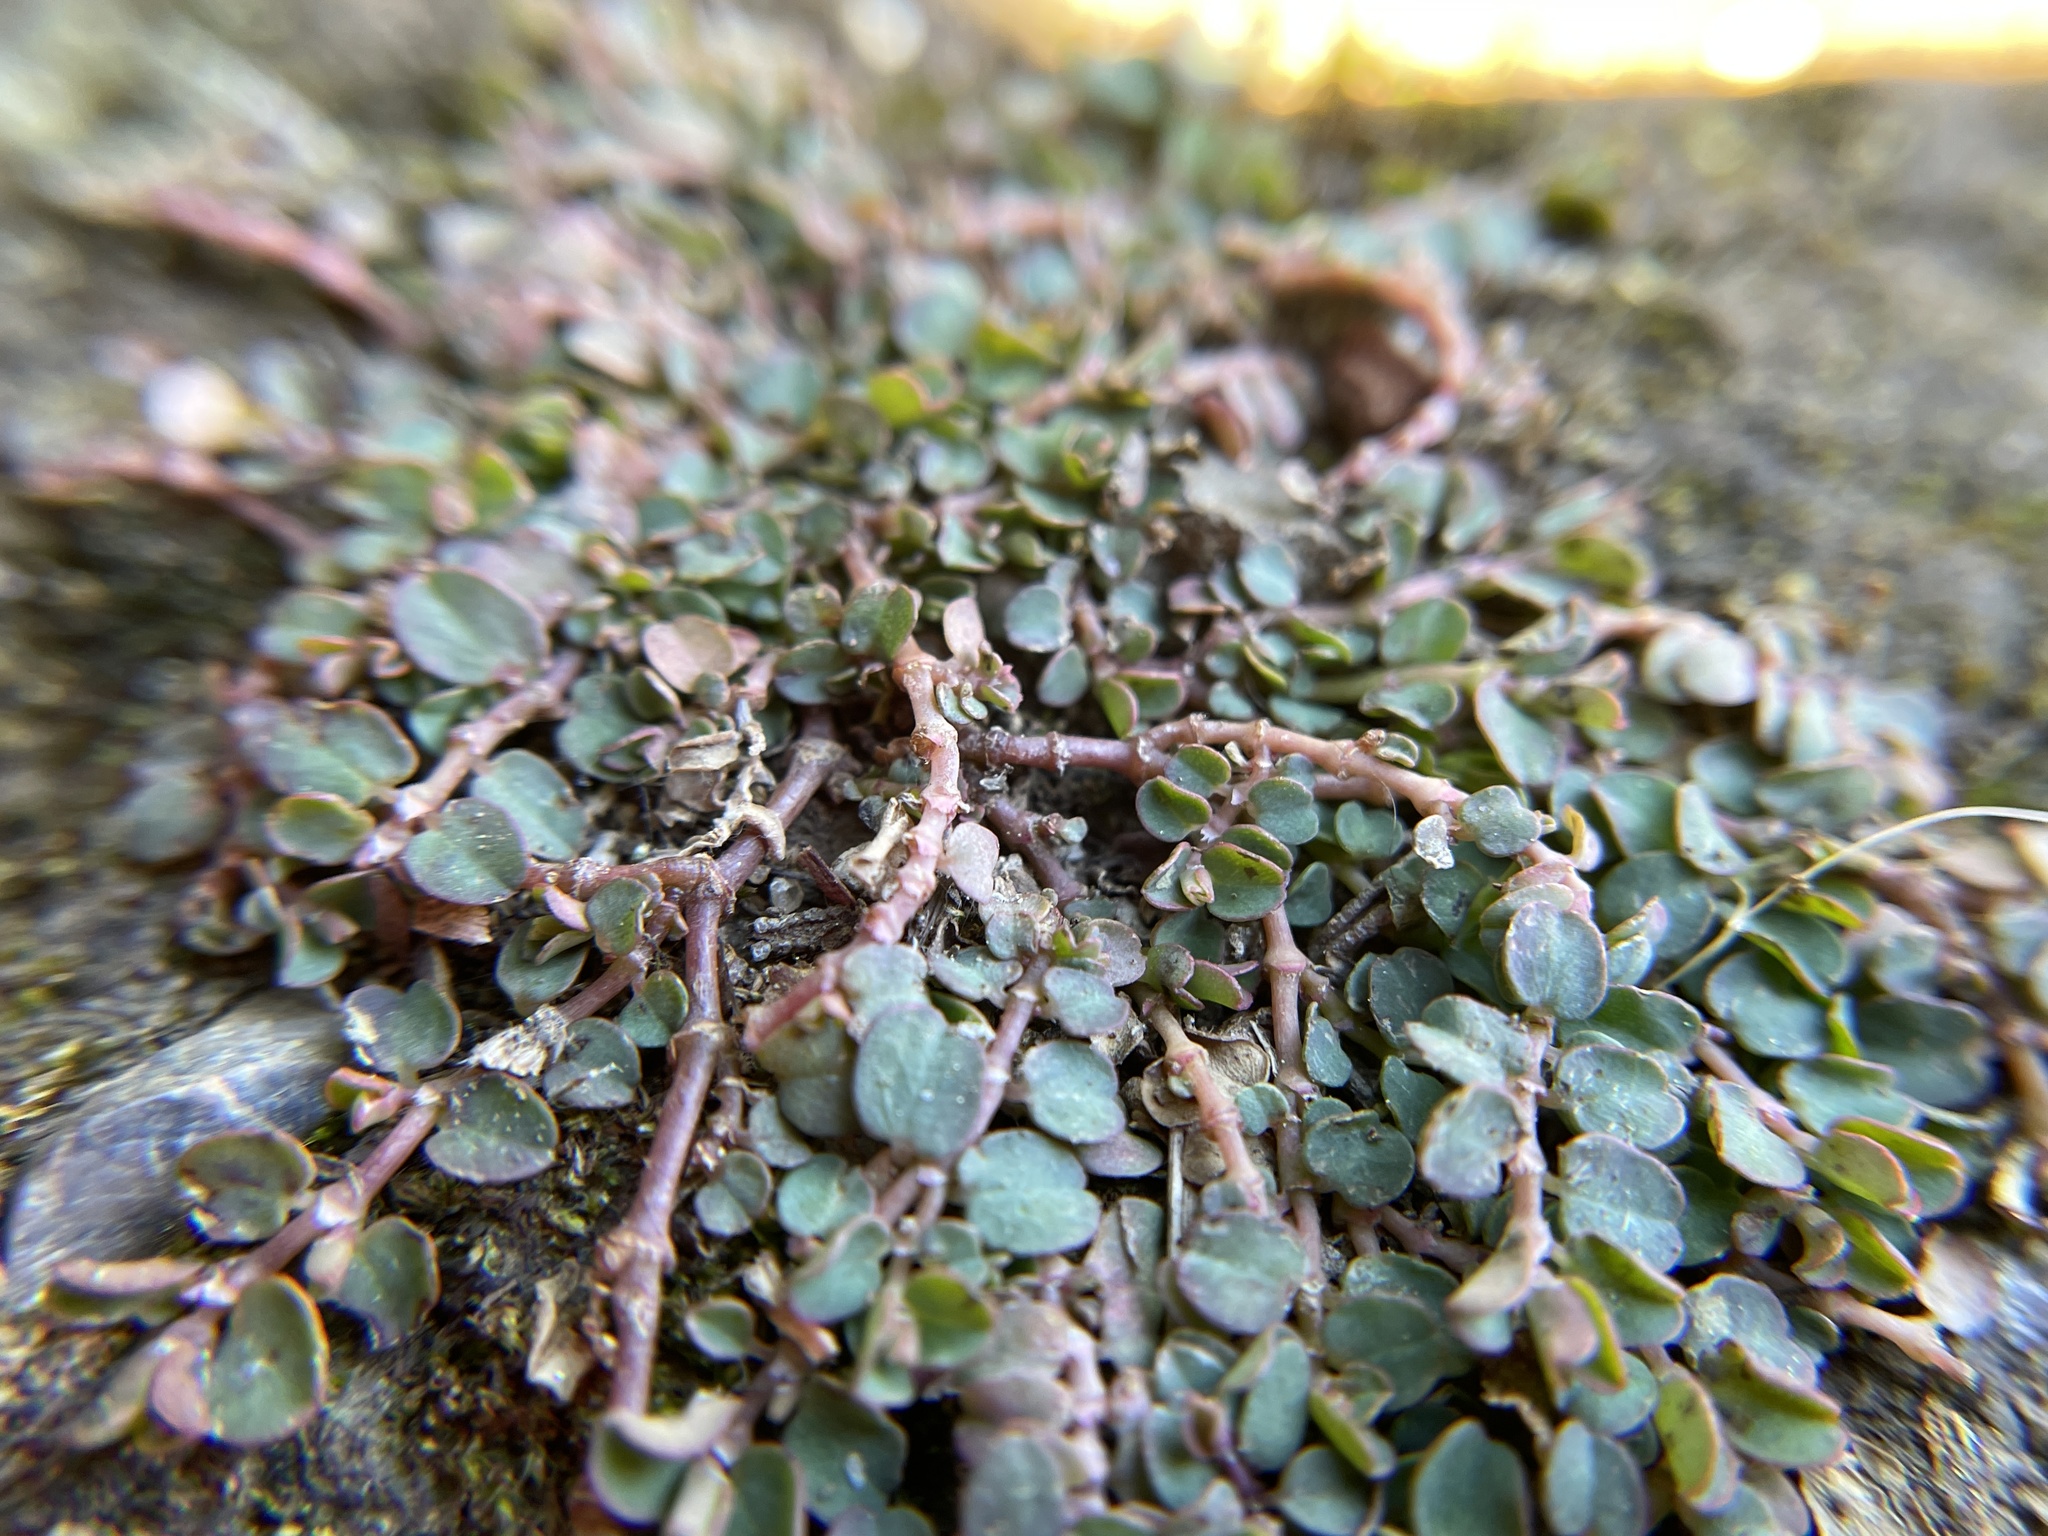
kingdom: Plantae
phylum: Tracheophyta
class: Magnoliopsida
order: Malpighiales
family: Euphorbiaceae
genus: Euphorbia
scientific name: Euphorbia serpens
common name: Matted sandmat
